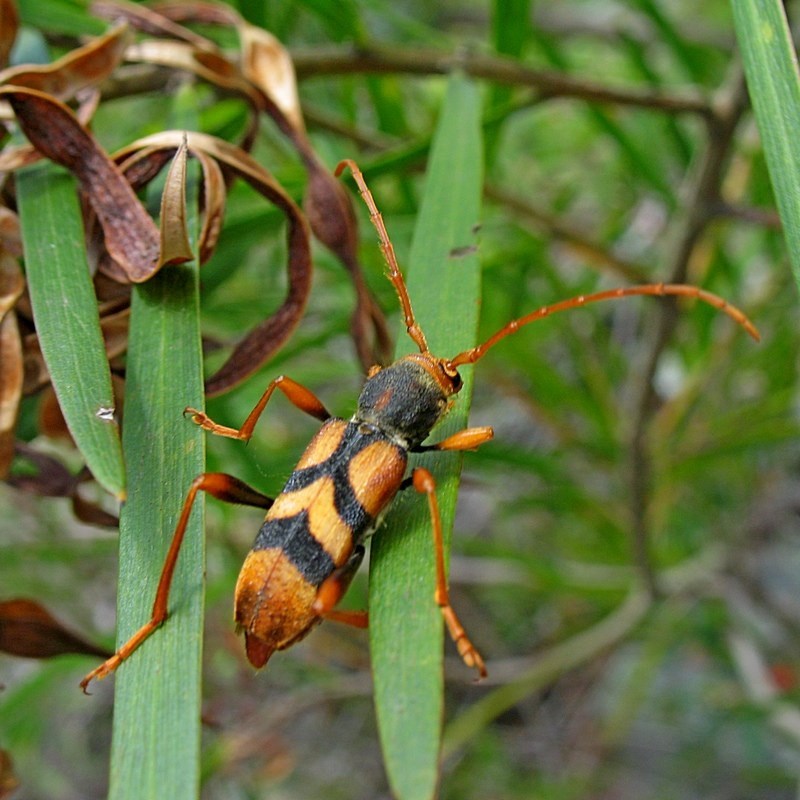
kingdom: Animalia
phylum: Arthropoda
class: Insecta
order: Coleoptera
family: Cerambycidae
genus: Aridaeus
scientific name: Aridaeus thoracicus
